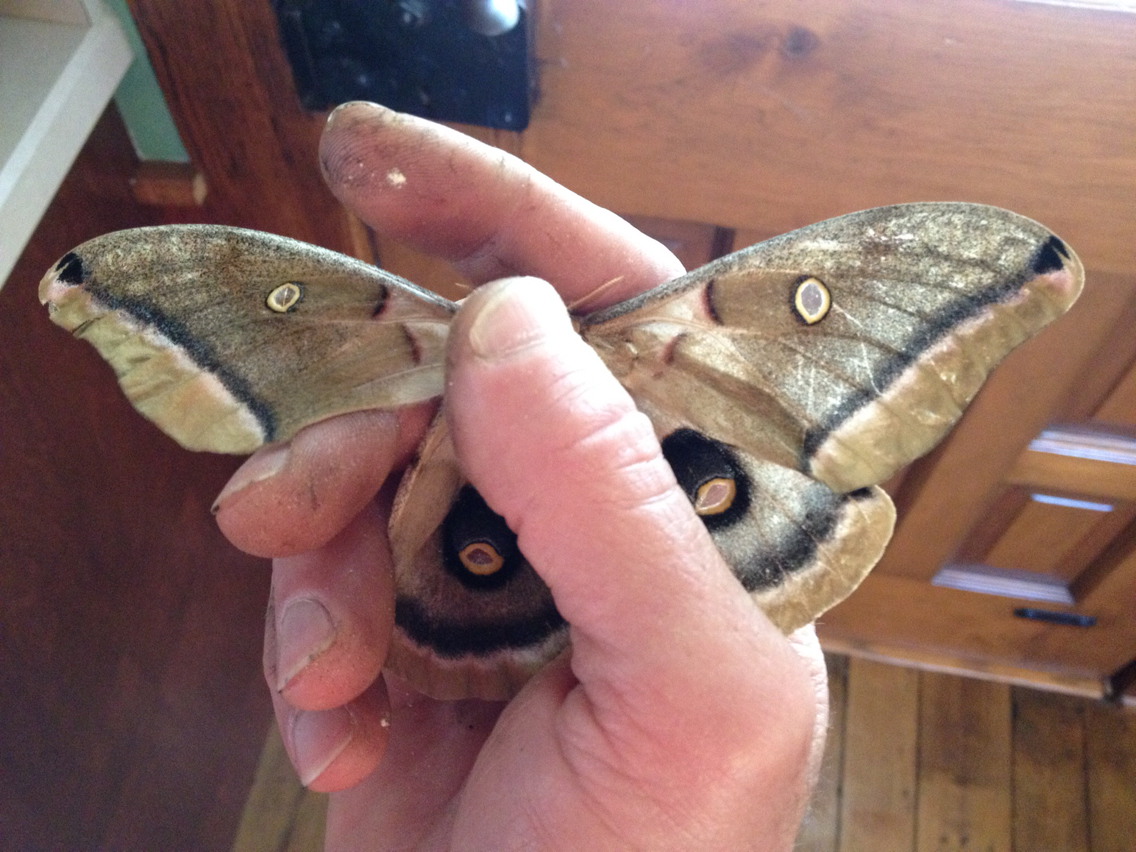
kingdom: Animalia
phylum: Arthropoda
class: Insecta
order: Lepidoptera
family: Saturniidae
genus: Antheraea
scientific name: Antheraea polyphemus
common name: Polyphemus moth
